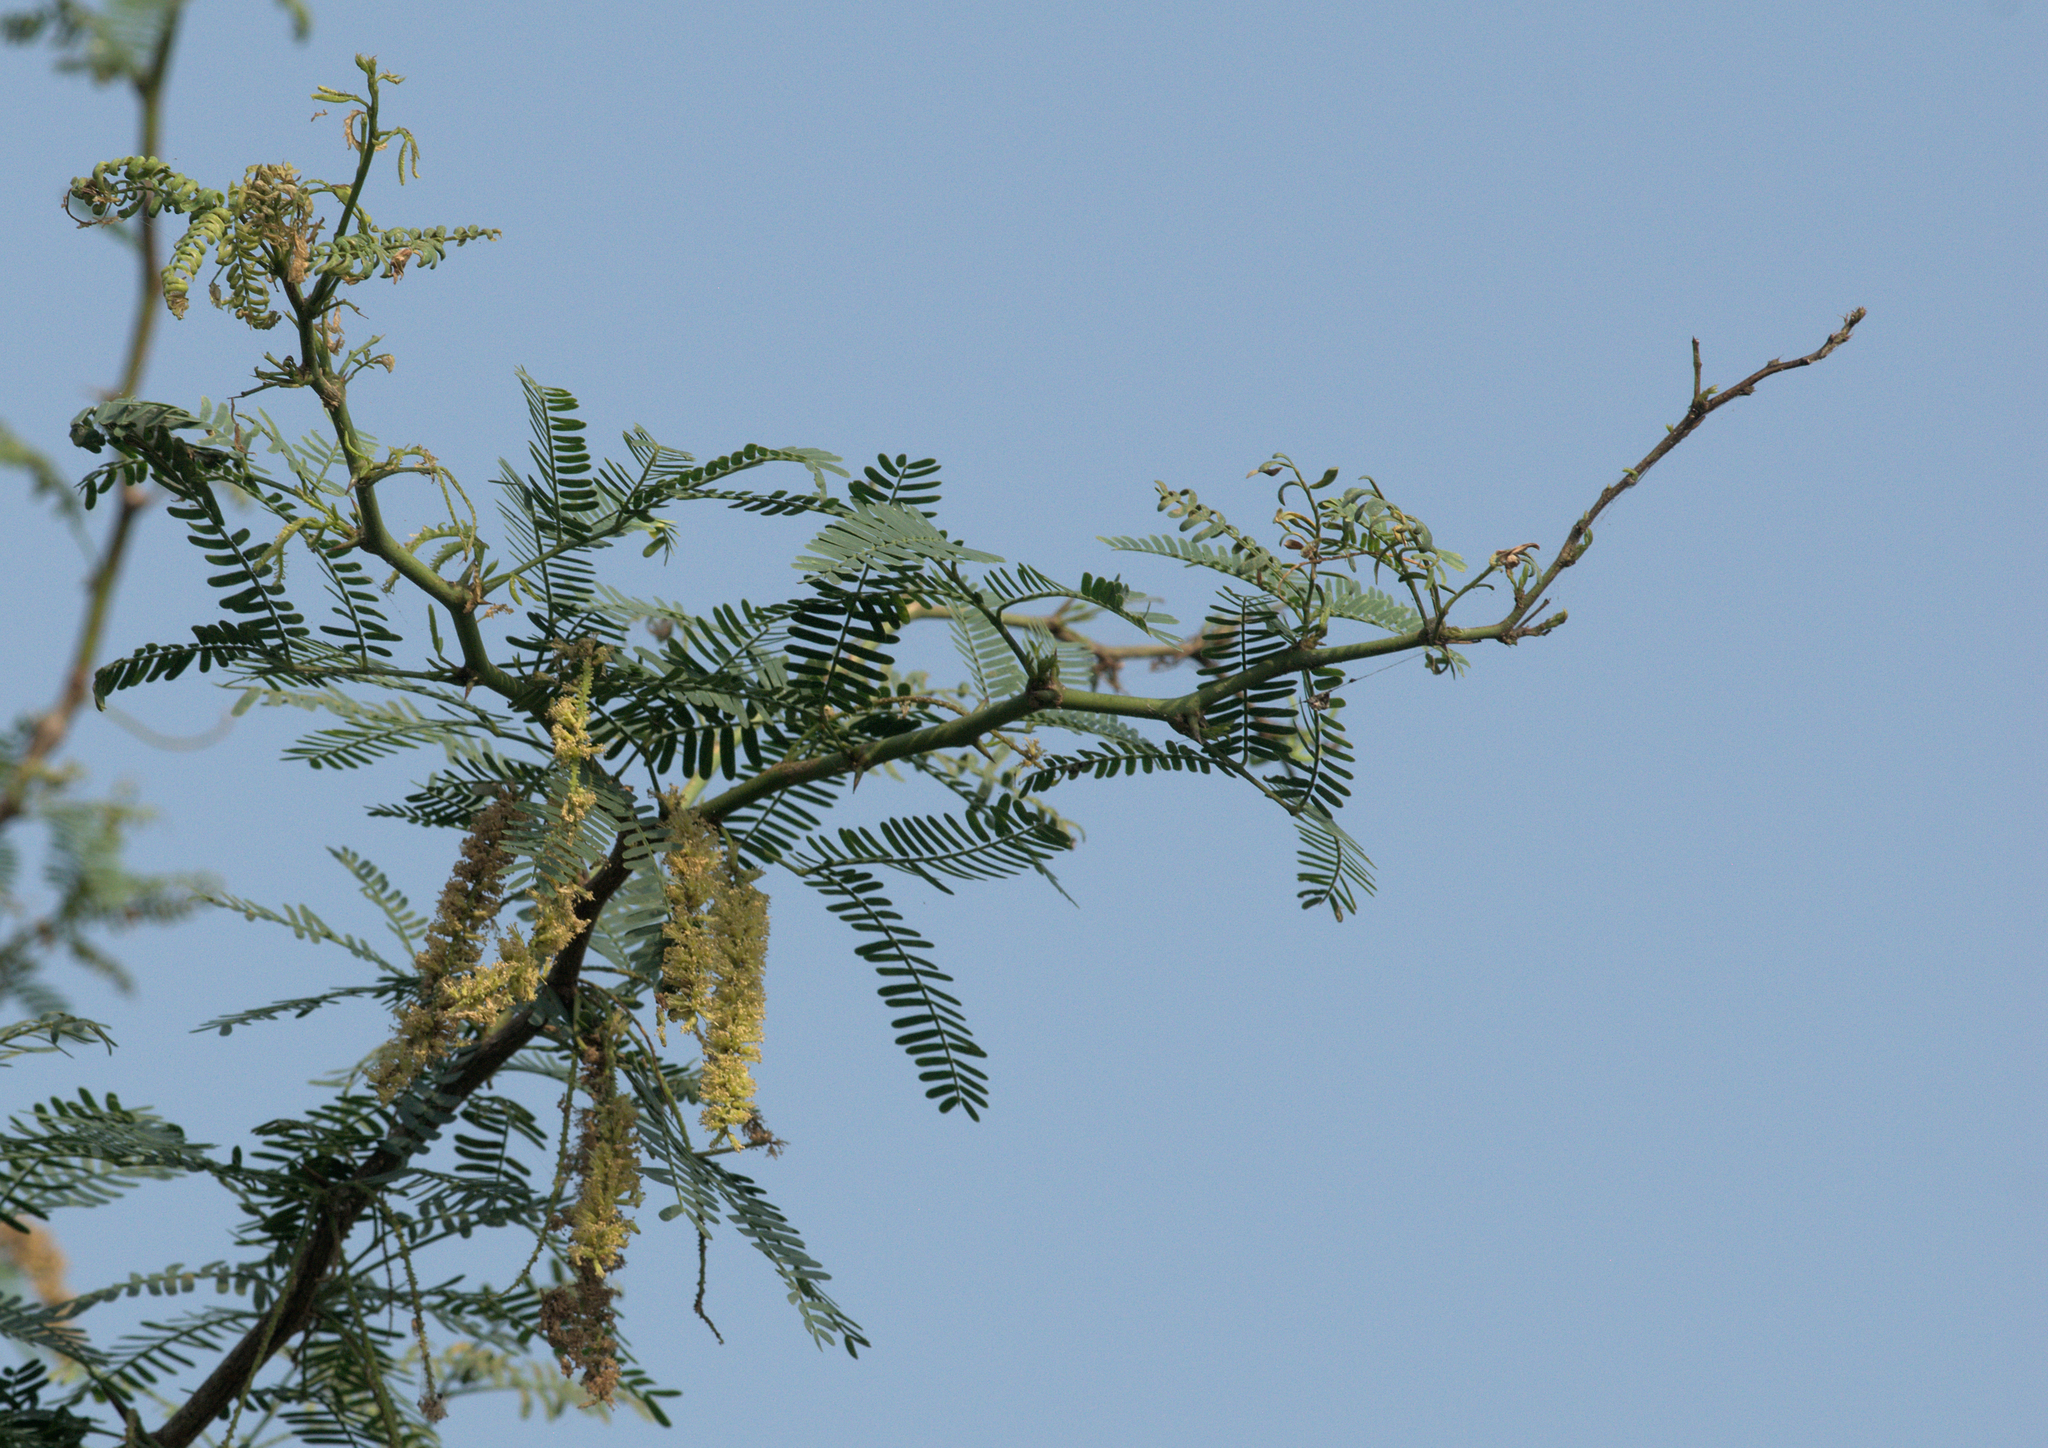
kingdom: Plantae
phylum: Tracheophyta
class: Magnoliopsida
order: Fabales
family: Fabaceae
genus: Prosopis
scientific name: Prosopis juliflora
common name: Mesquite
